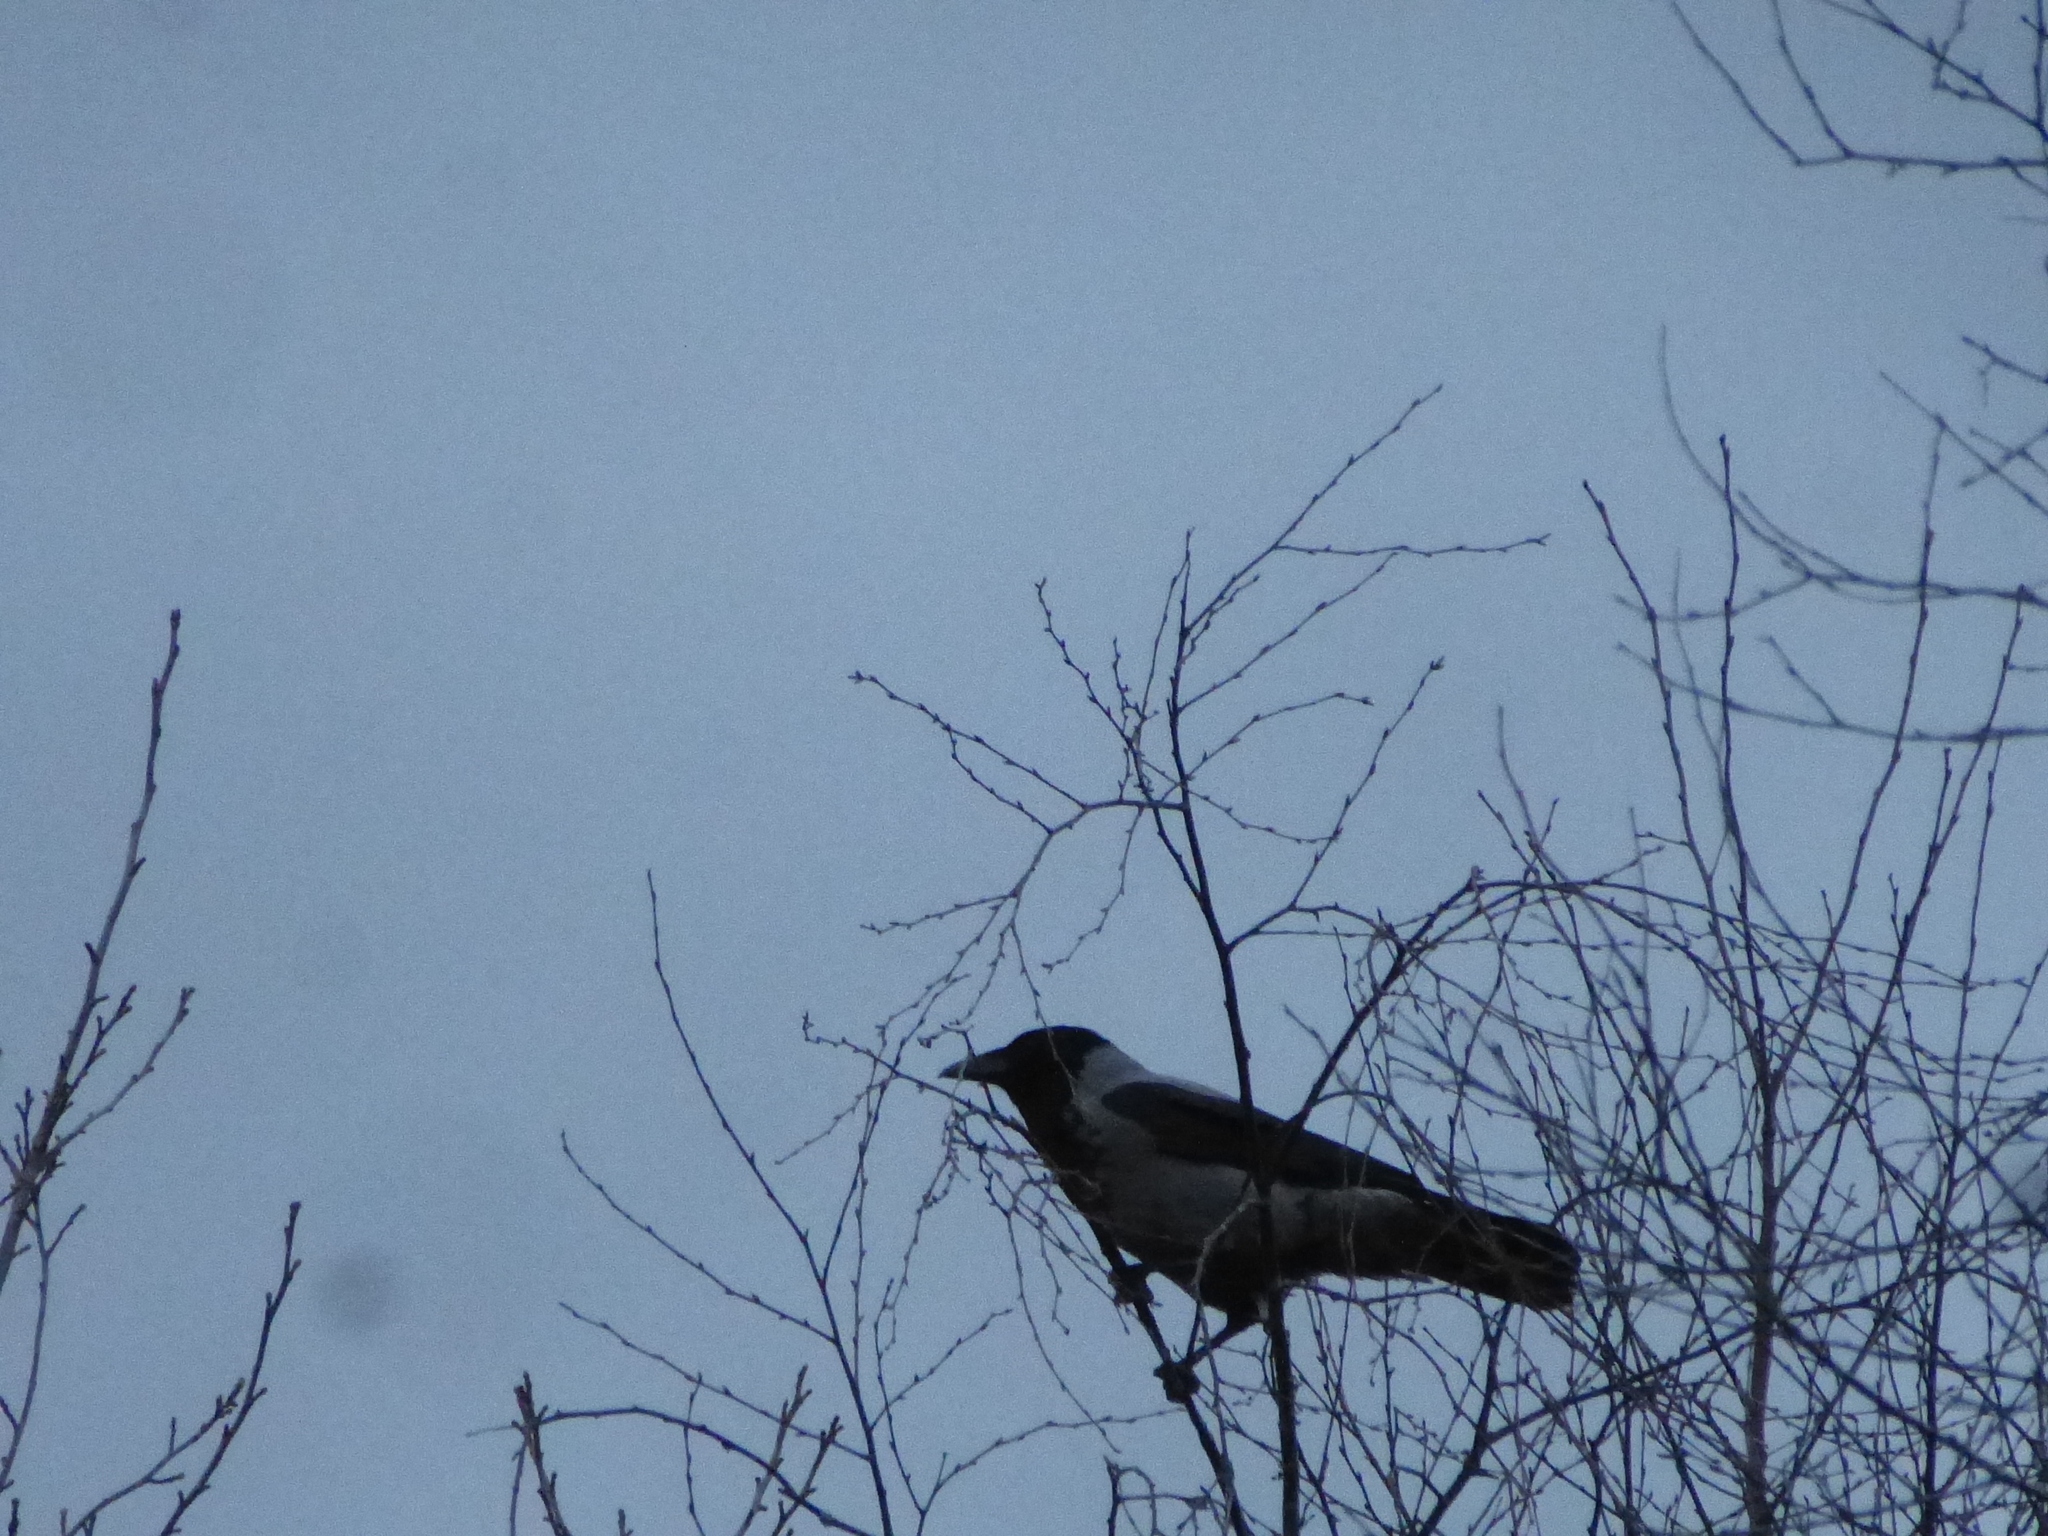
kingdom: Animalia
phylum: Chordata
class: Aves
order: Passeriformes
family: Corvidae
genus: Corvus
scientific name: Corvus cornix
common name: Hooded crow
